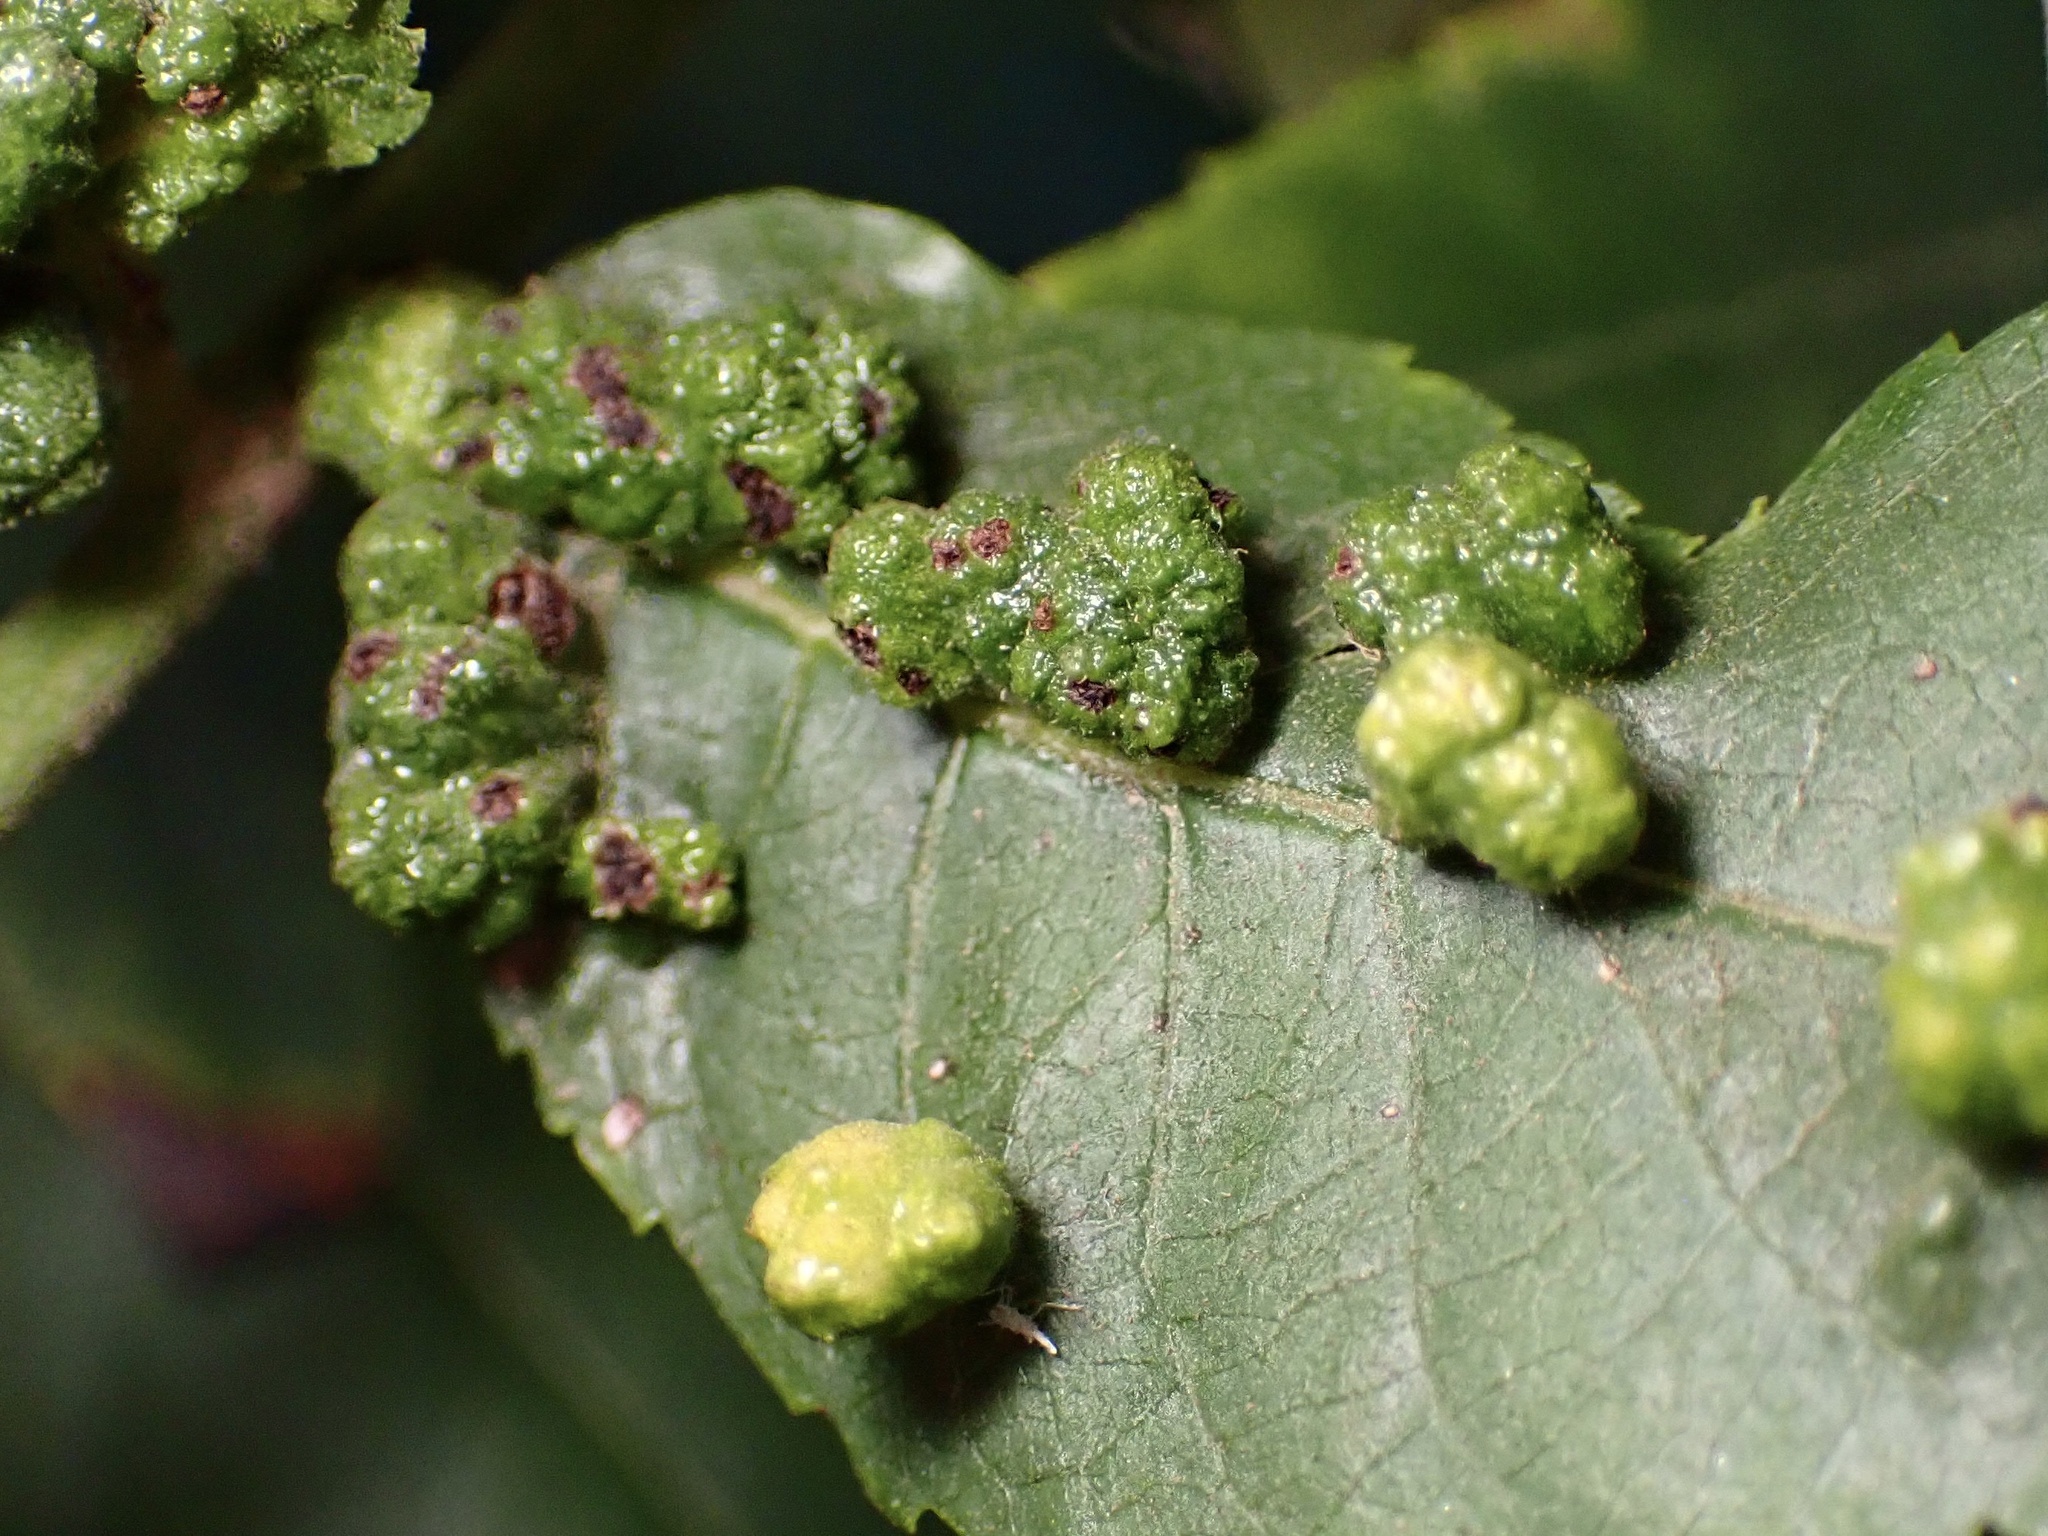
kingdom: Animalia
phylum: Arthropoda
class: Arachnida
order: Trombidiformes
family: Eriophyidae
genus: Aceria
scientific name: Aceria brachytarsus
